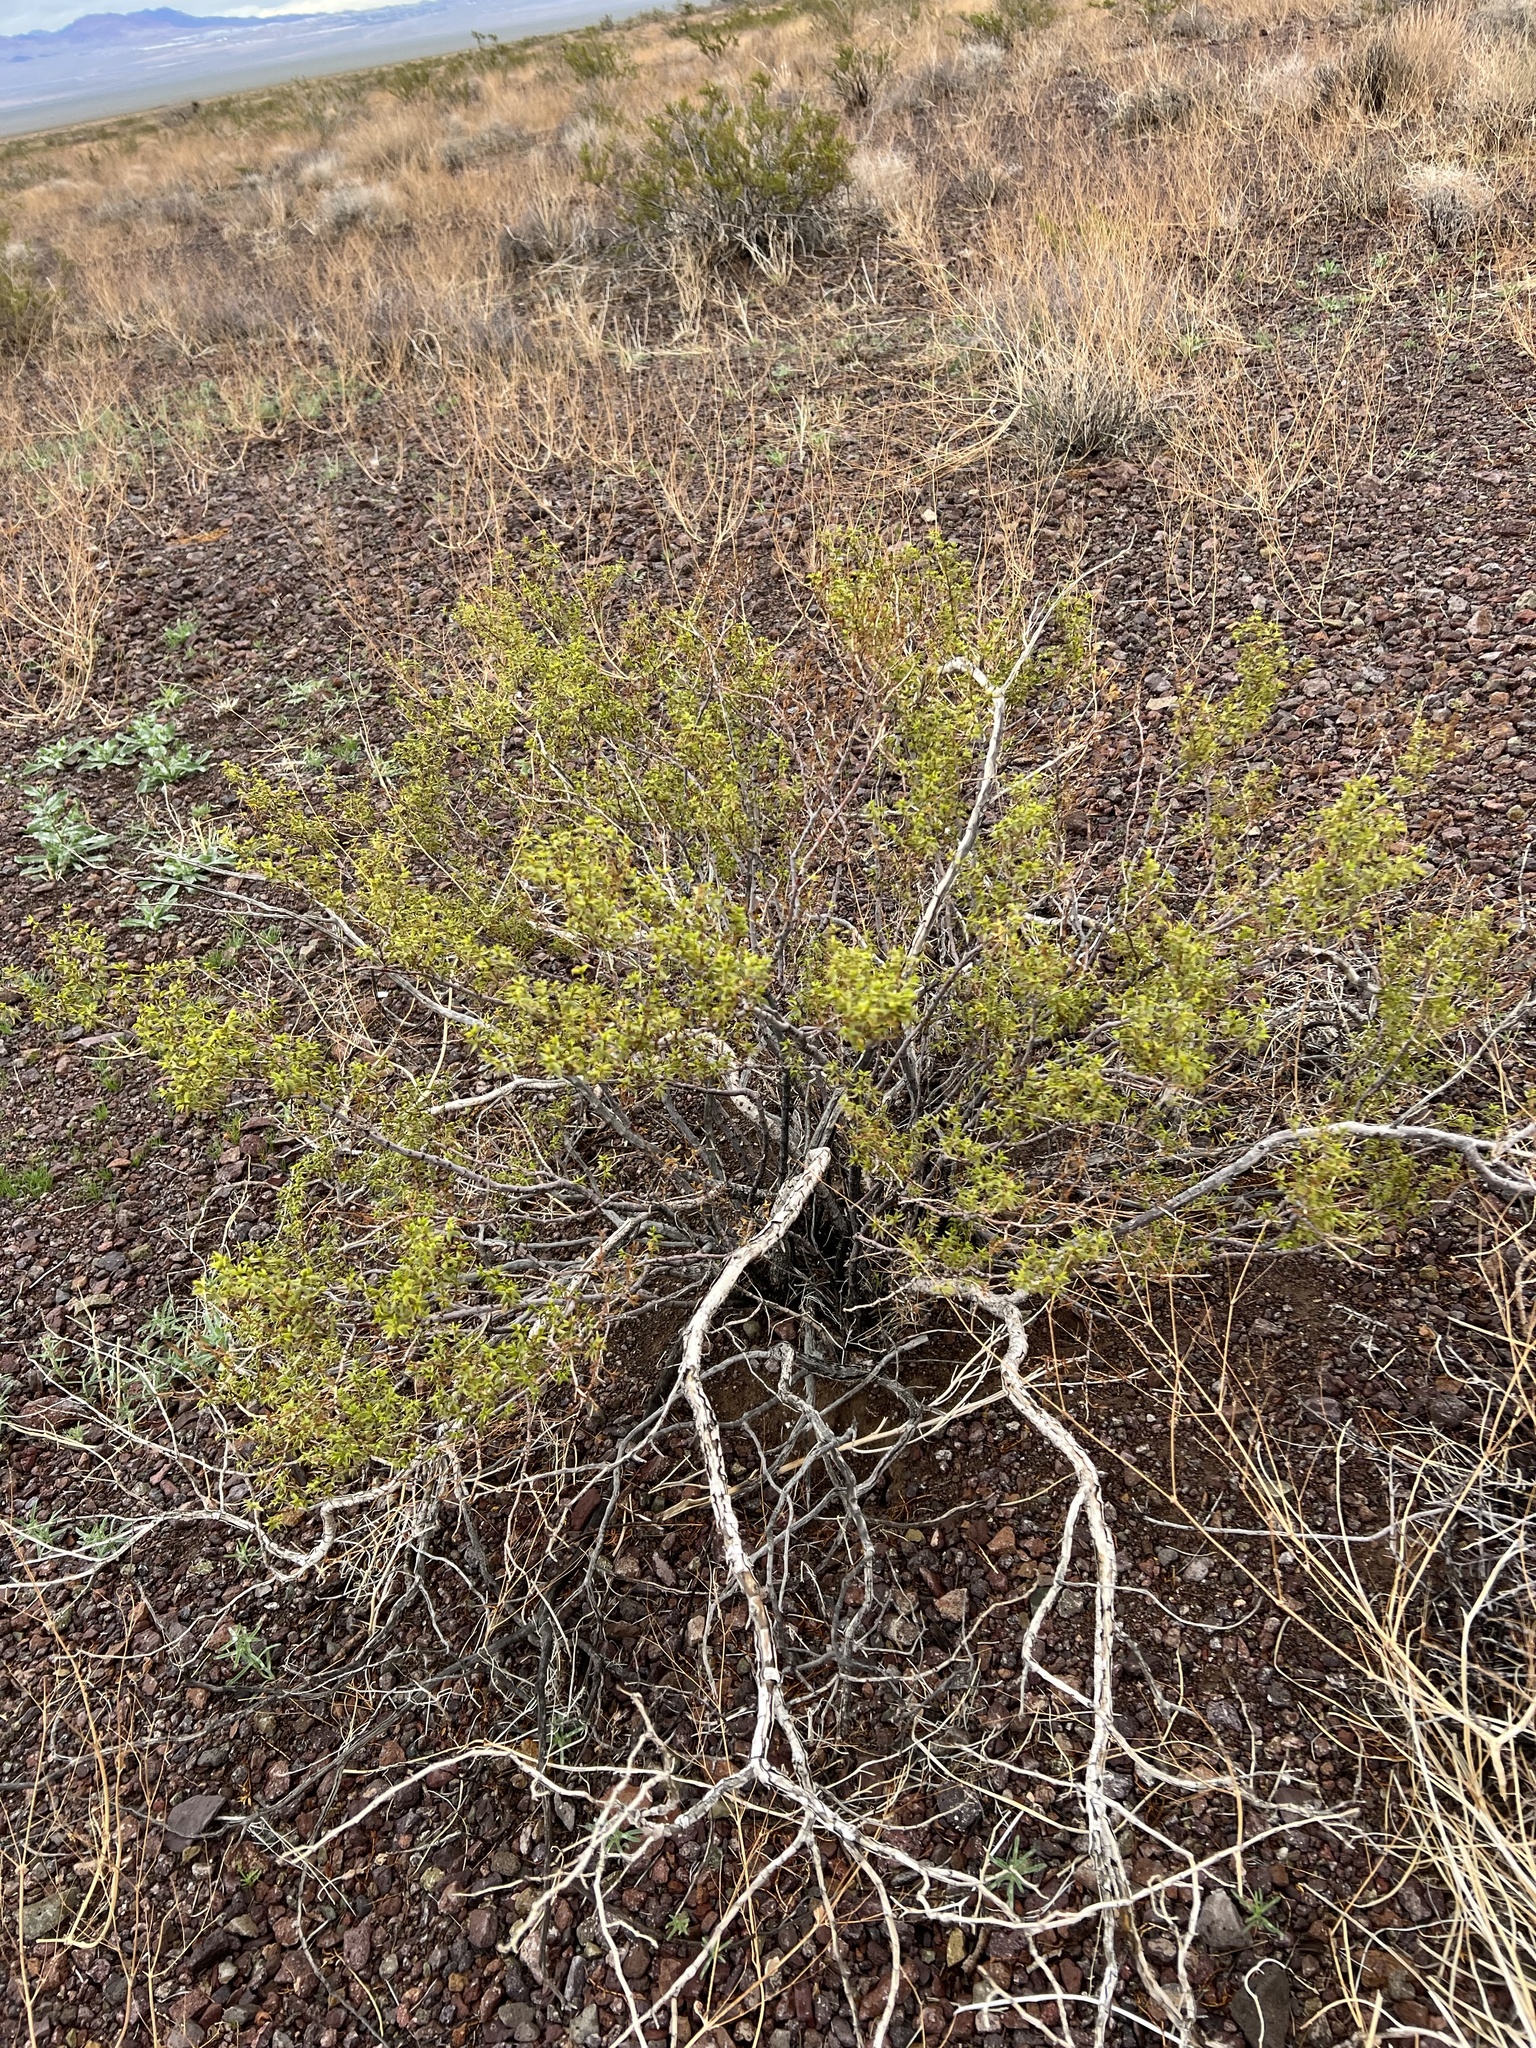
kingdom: Plantae
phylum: Tracheophyta
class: Magnoliopsida
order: Zygophyllales
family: Zygophyllaceae
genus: Larrea
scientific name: Larrea tridentata
